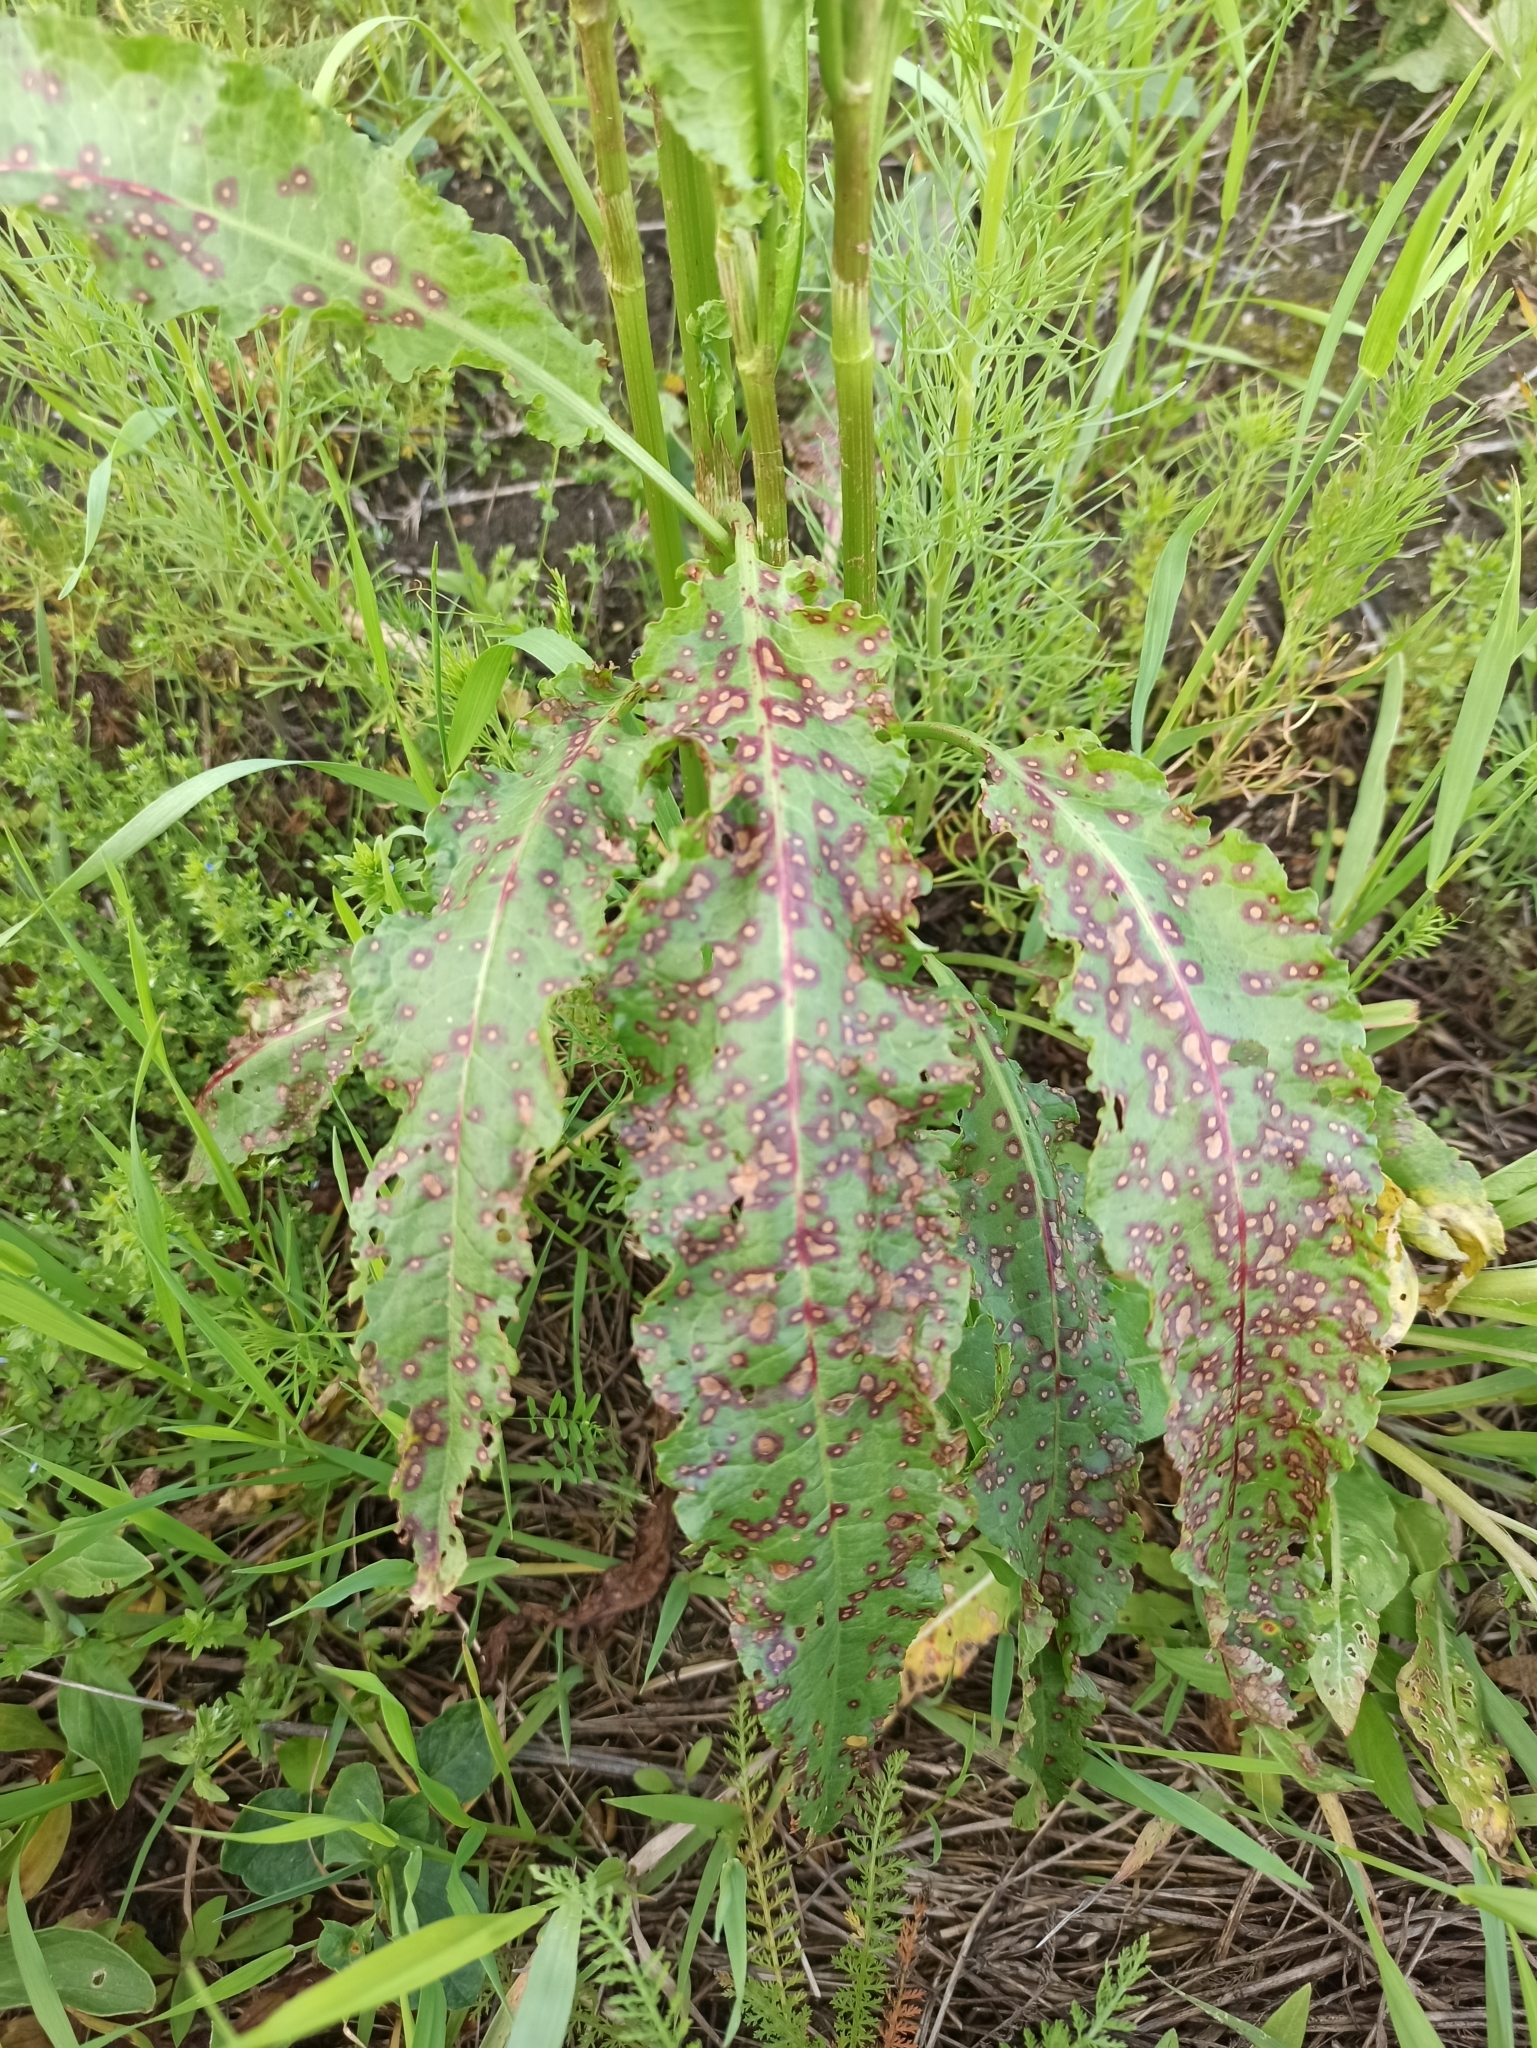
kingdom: Plantae
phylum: Tracheophyta
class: Magnoliopsida
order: Caryophyllales
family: Polygonaceae
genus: Rumex
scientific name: Rumex crispus
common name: Curled dock
